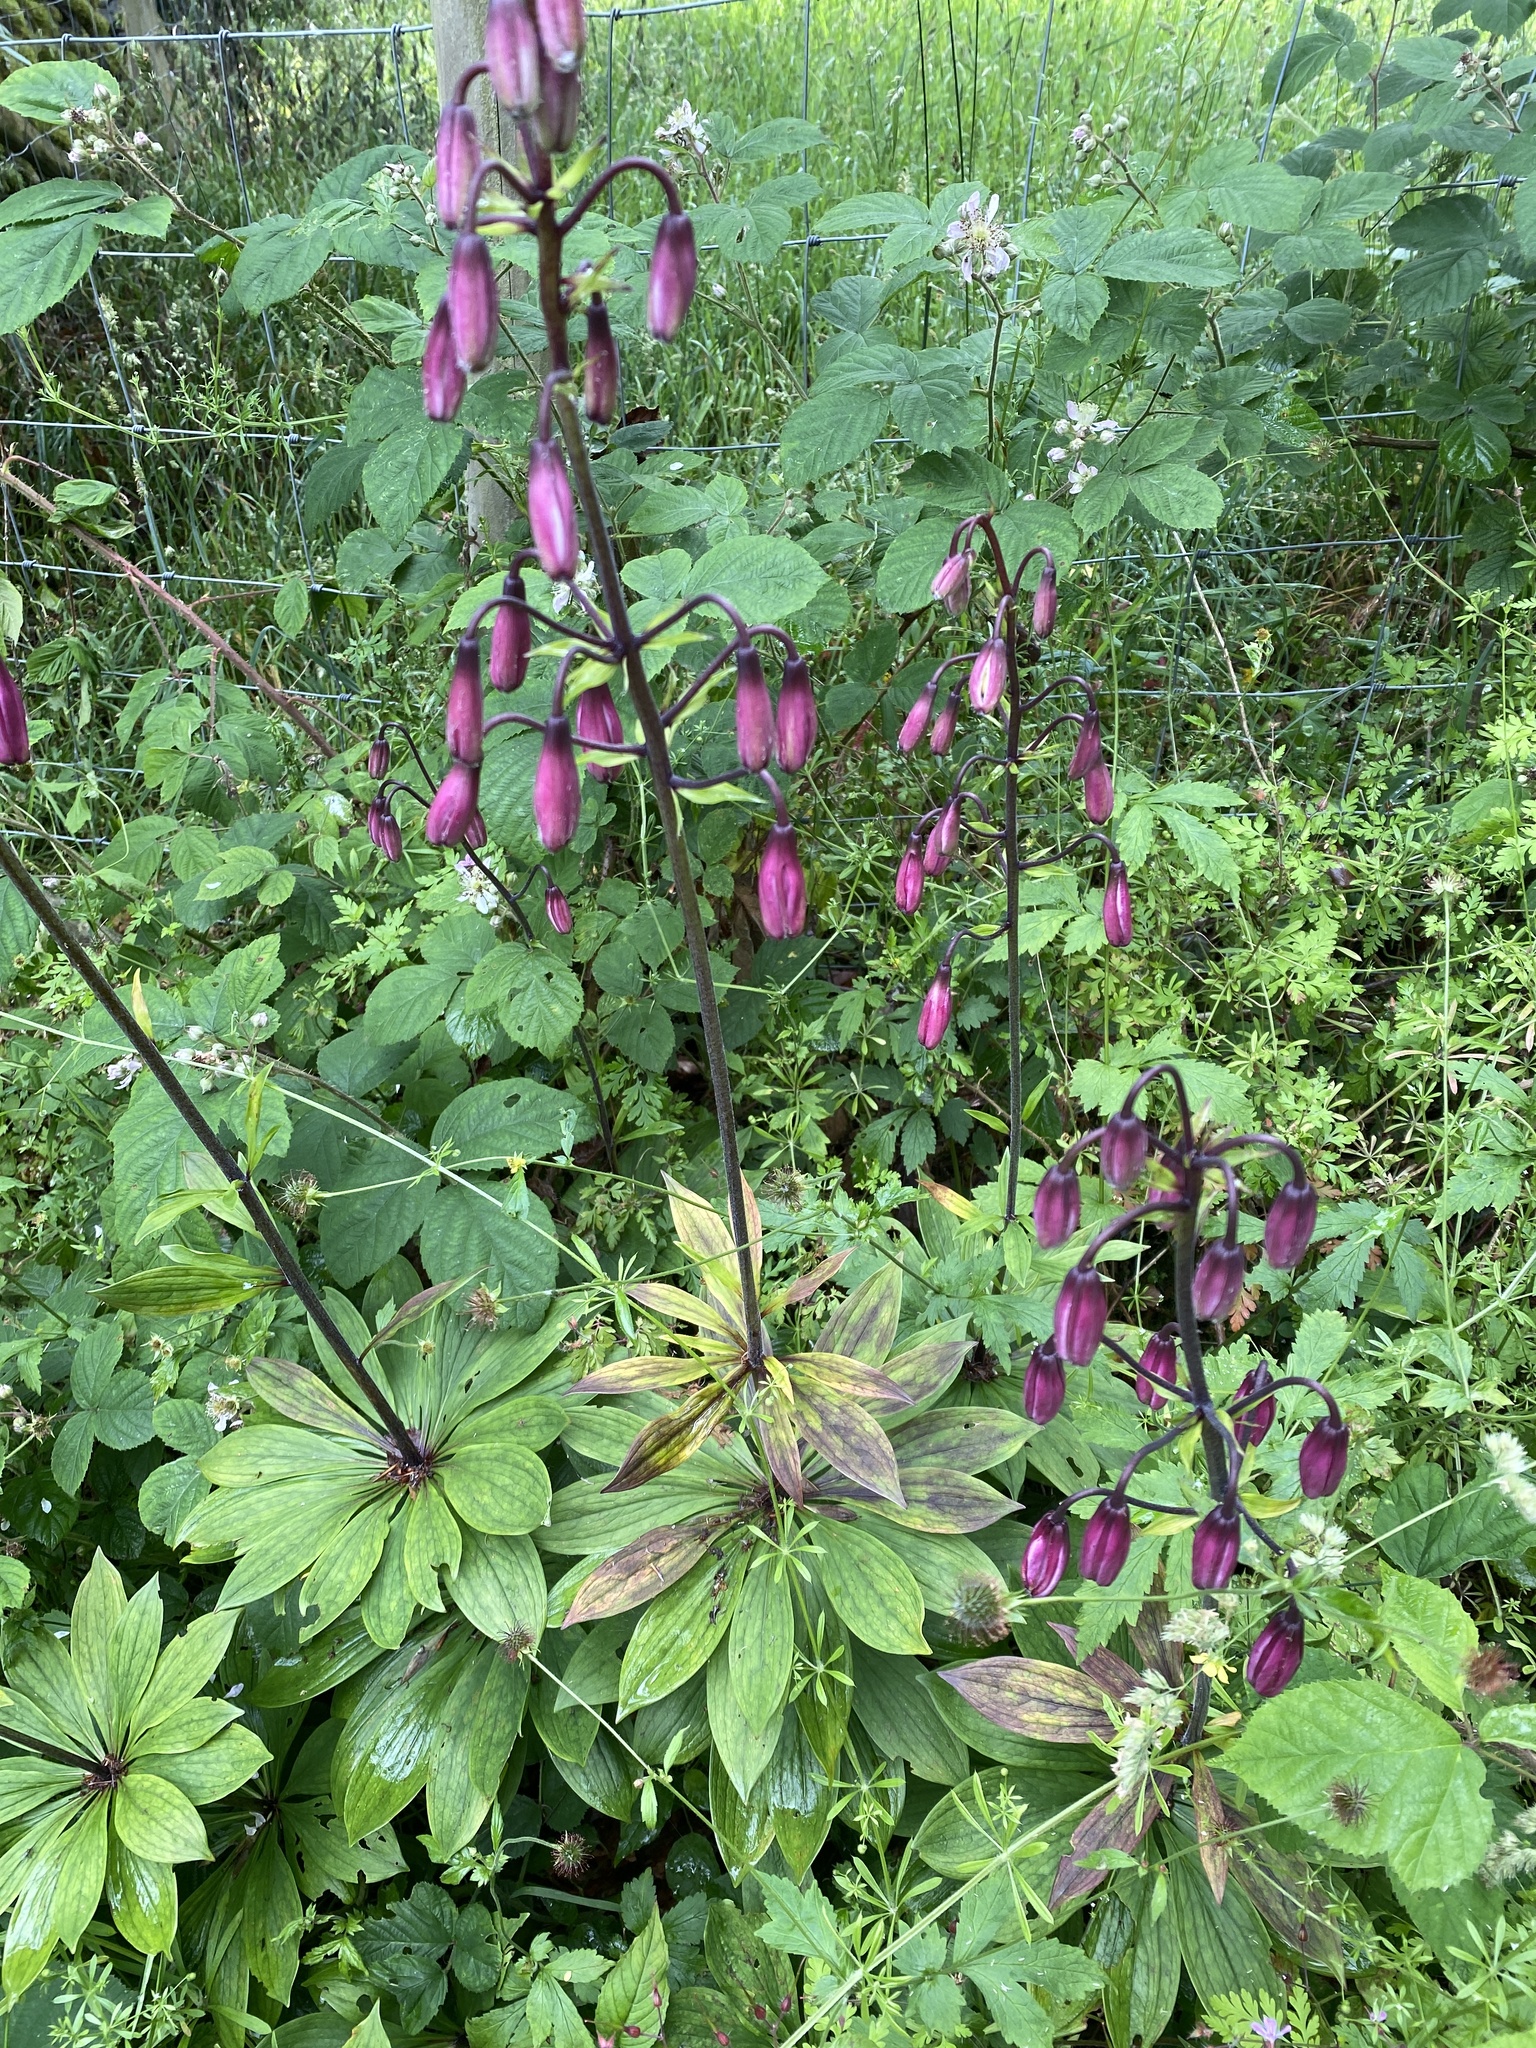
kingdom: Plantae
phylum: Tracheophyta
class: Liliopsida
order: Liliales
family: Liliaceae
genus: Lilium
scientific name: Lilium martagon
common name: Martagon lily
